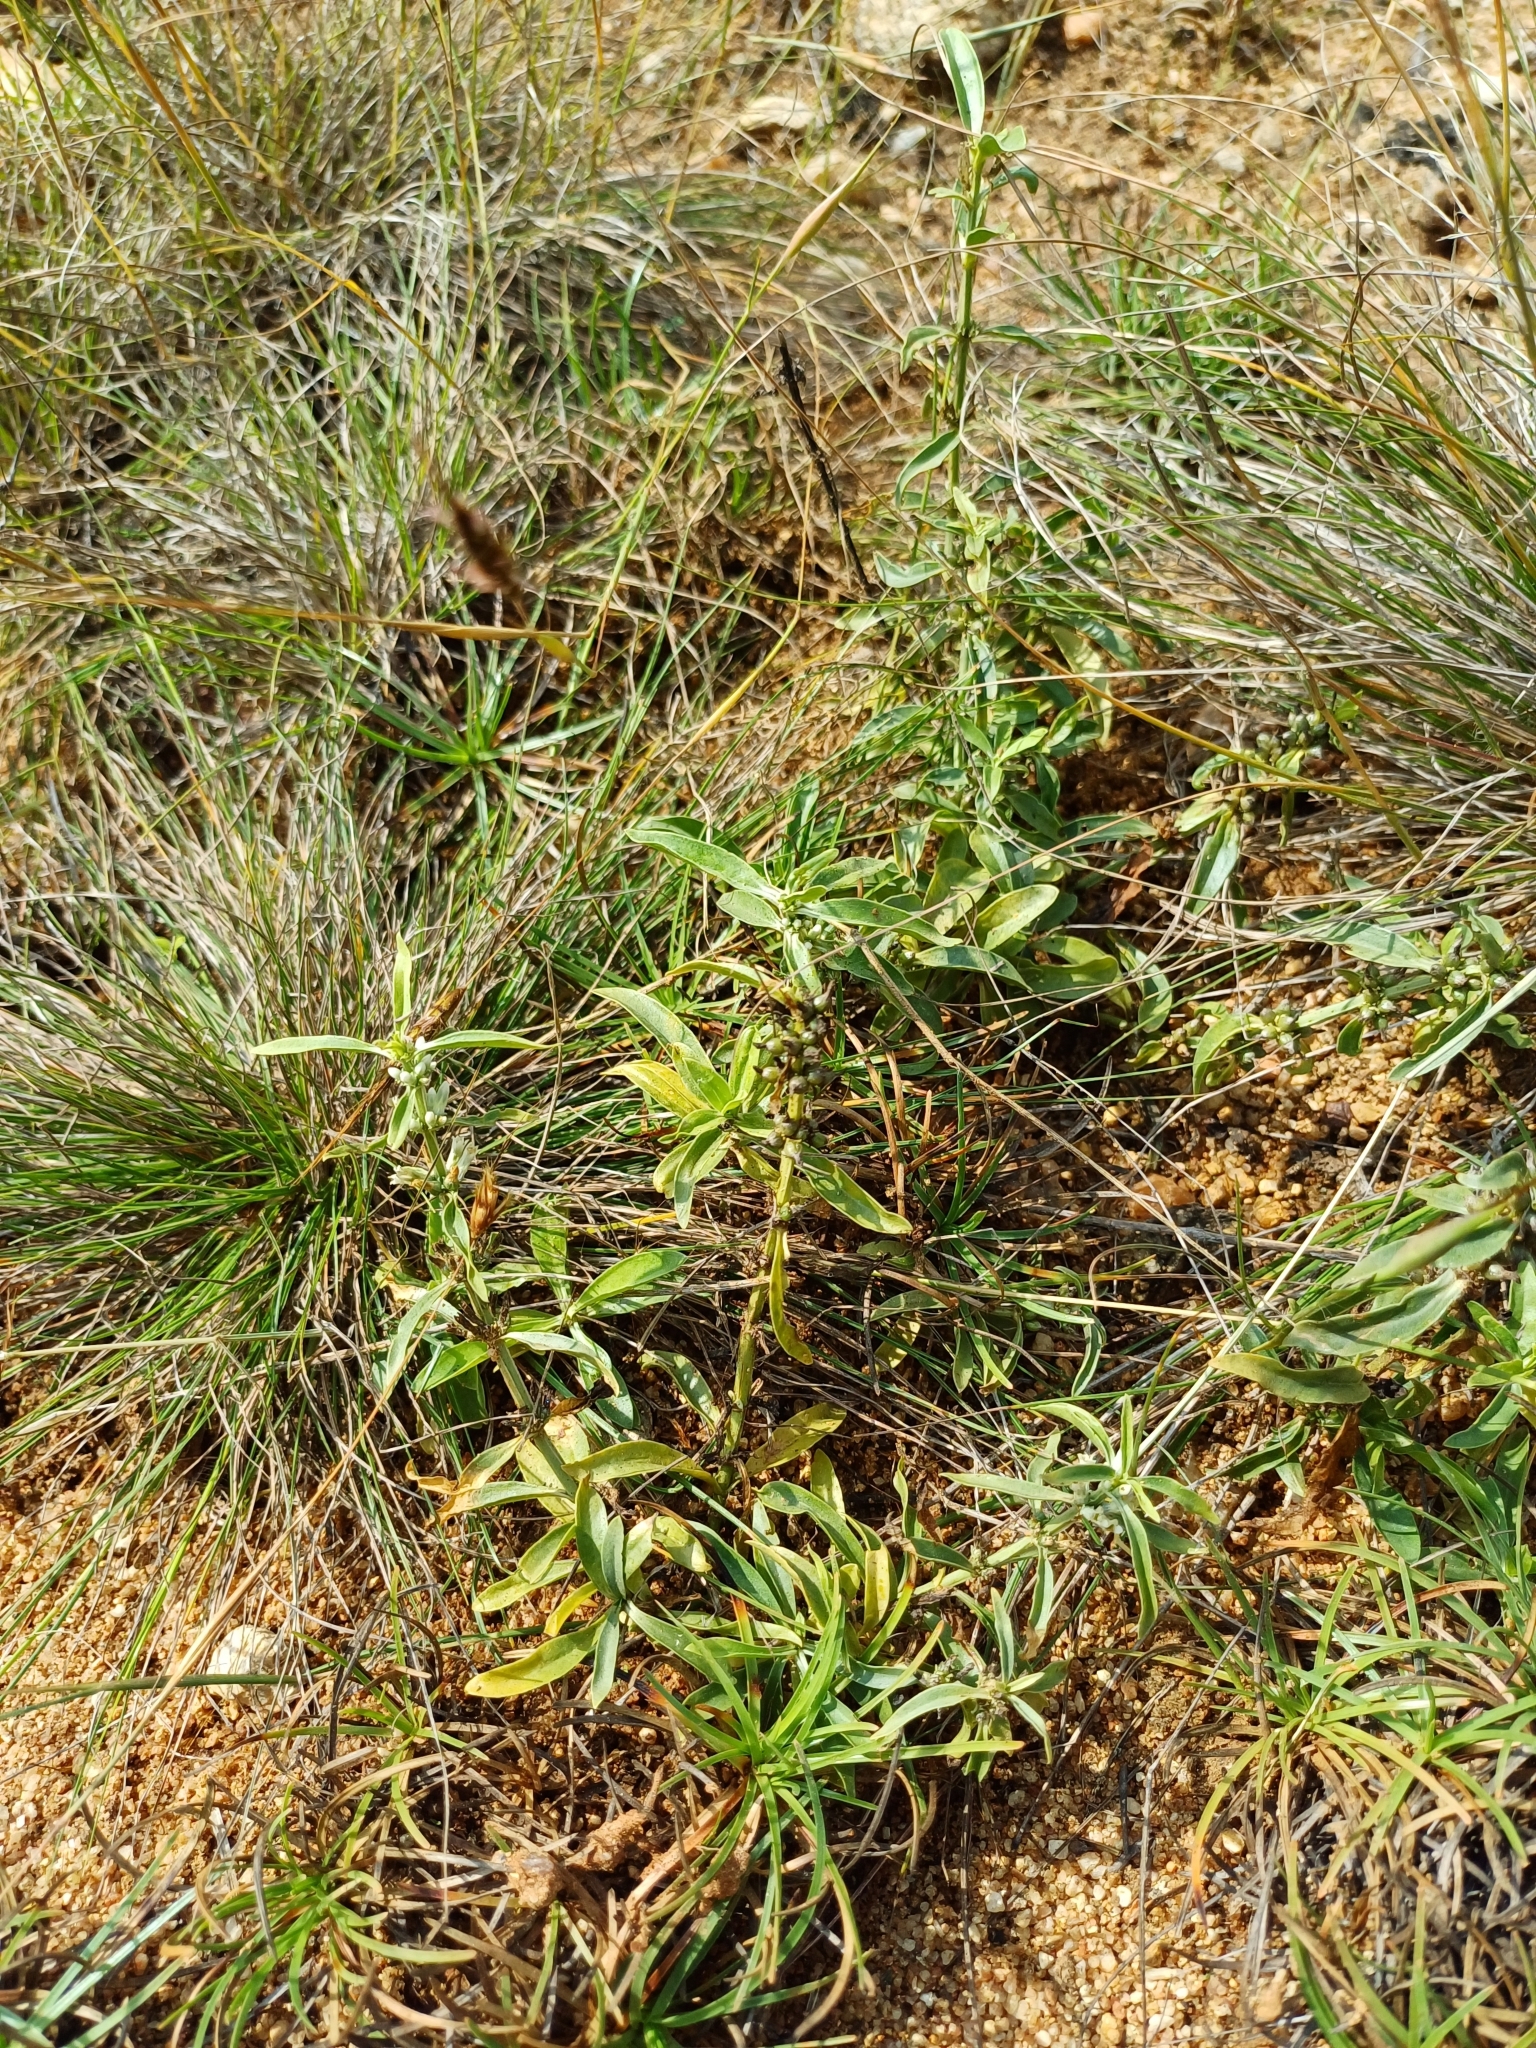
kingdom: Plantae
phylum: Tracheophyta
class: Magnoliopsida
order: Gentianales
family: Gentianaceae
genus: Enicostema
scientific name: Enicostema axillare
